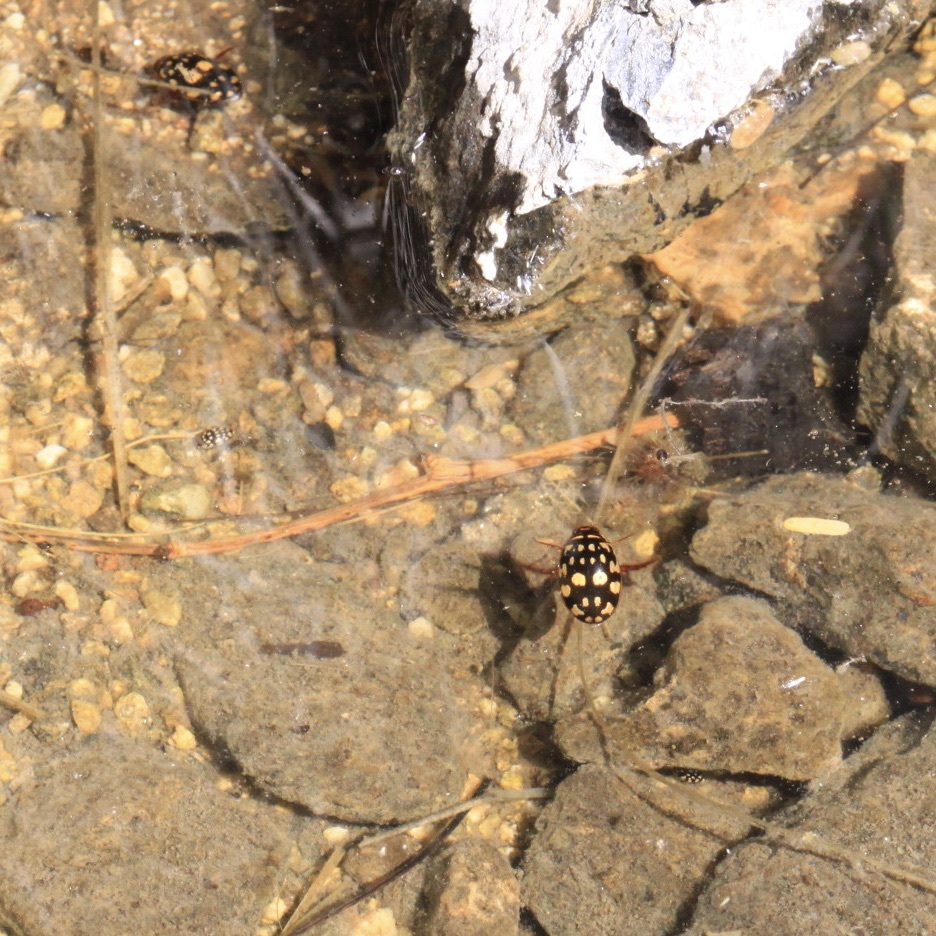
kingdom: Animalia
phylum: Arthropoda
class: Insecta
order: Coleoptera
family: Dytiscidae
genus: Thermonectus
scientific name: Thermonectus marmoratus
